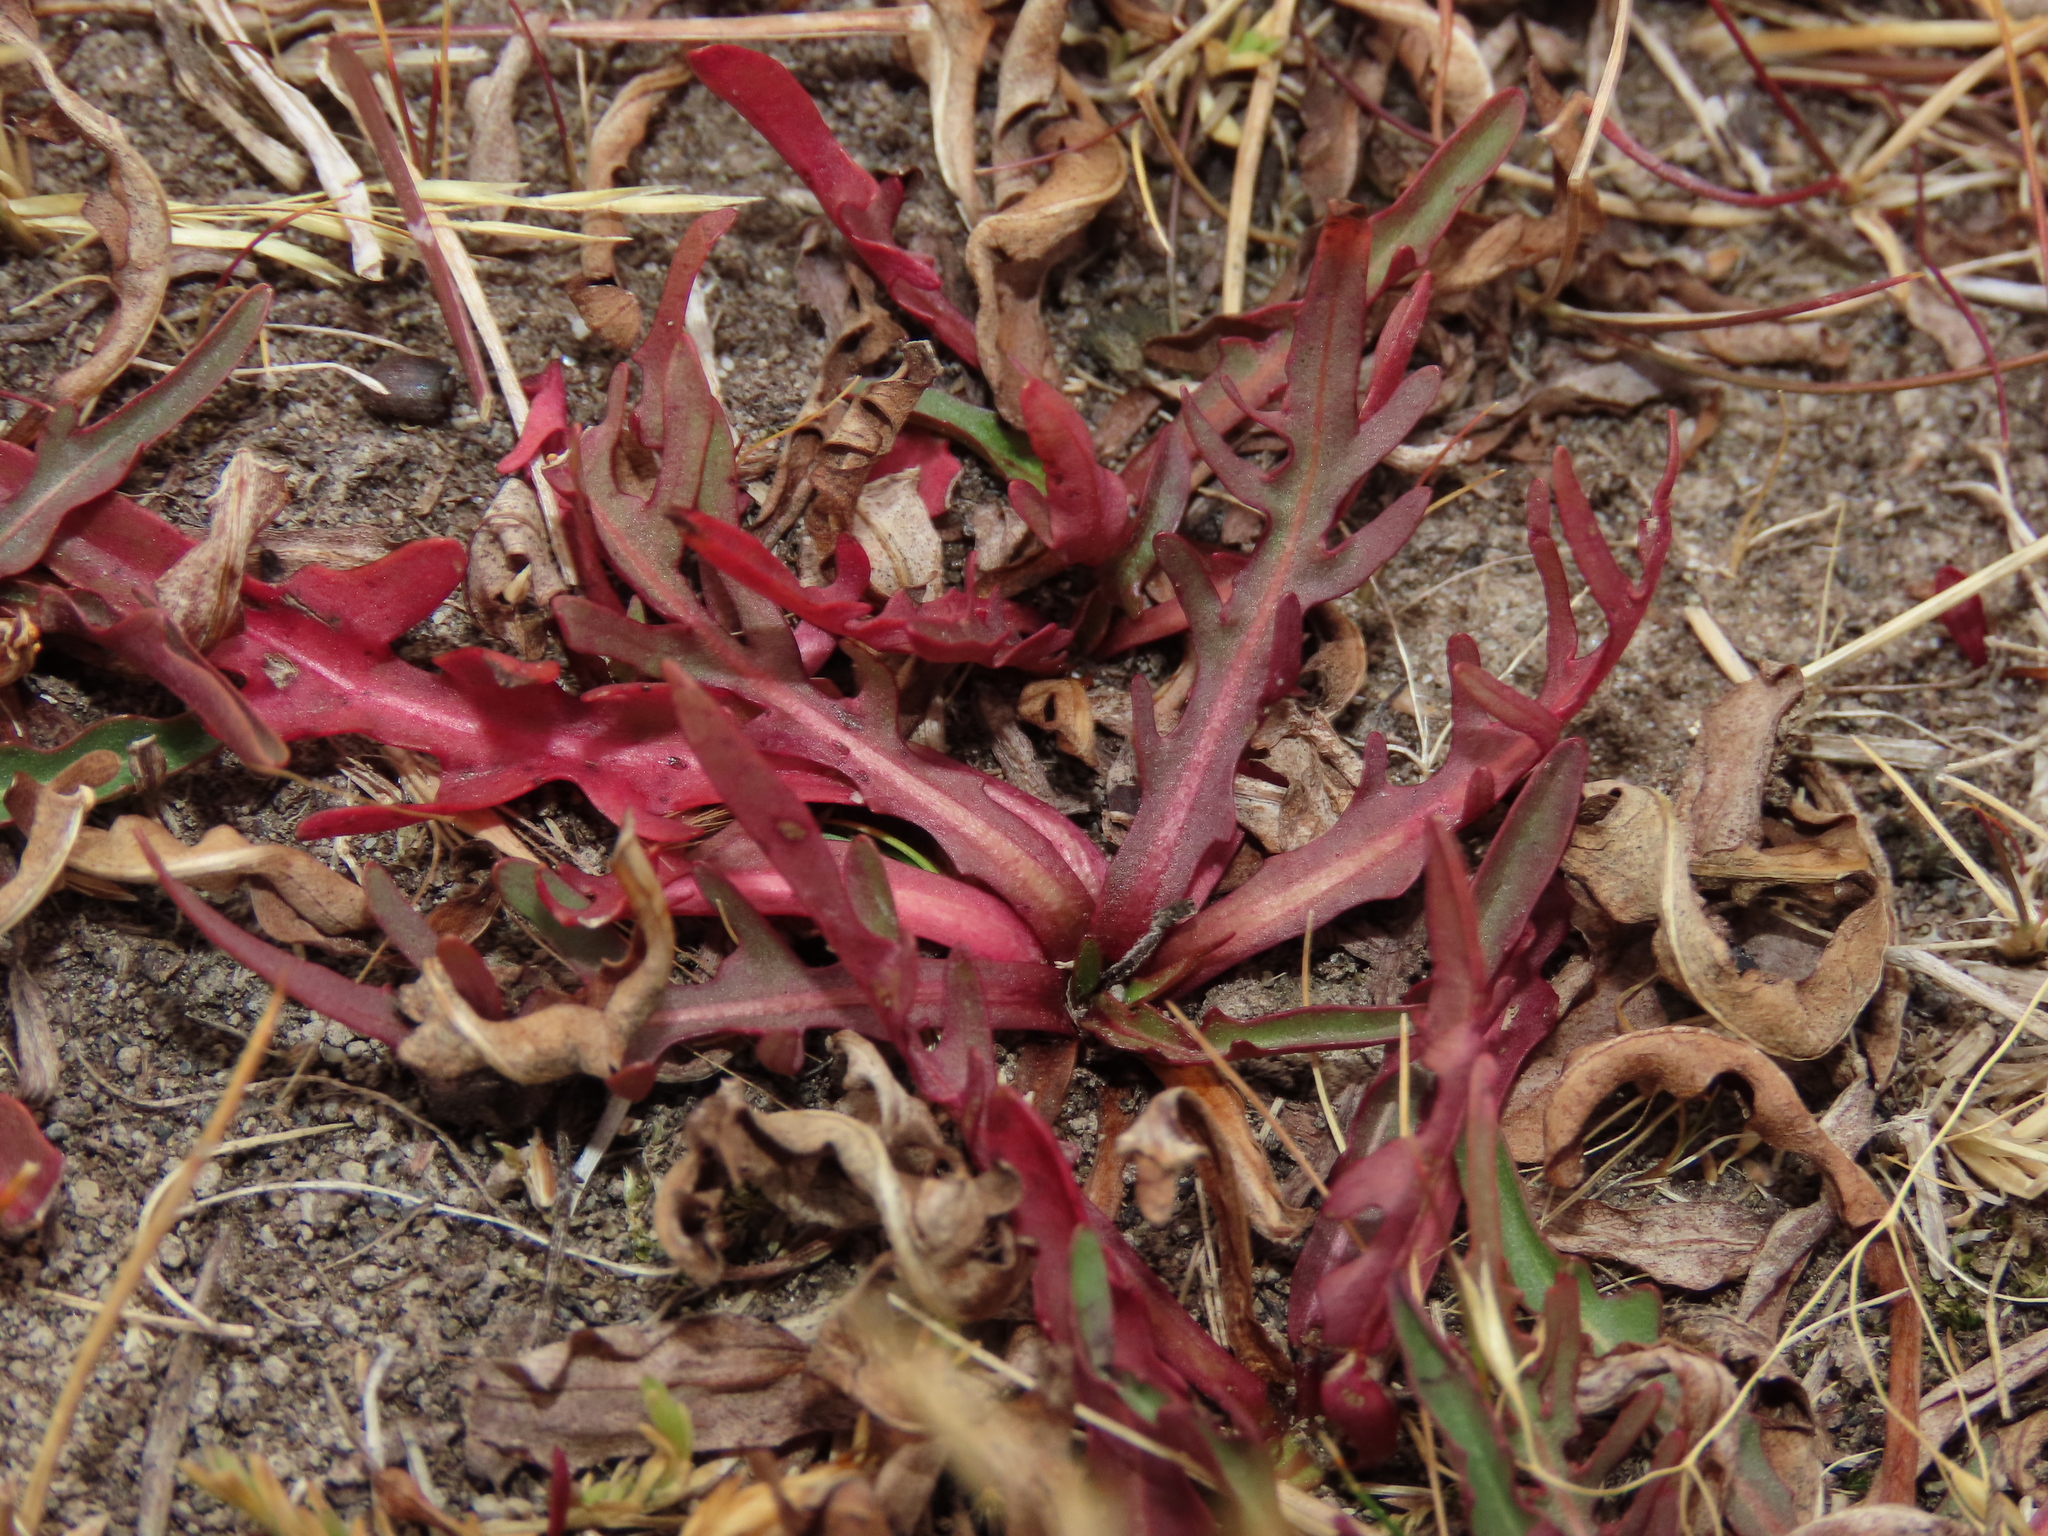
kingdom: Plantae
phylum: Tracheophyta
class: Magnoliopsida
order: Asterales
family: Asteraceae
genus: Hypochaeris
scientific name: Hypochaeris patagonica
